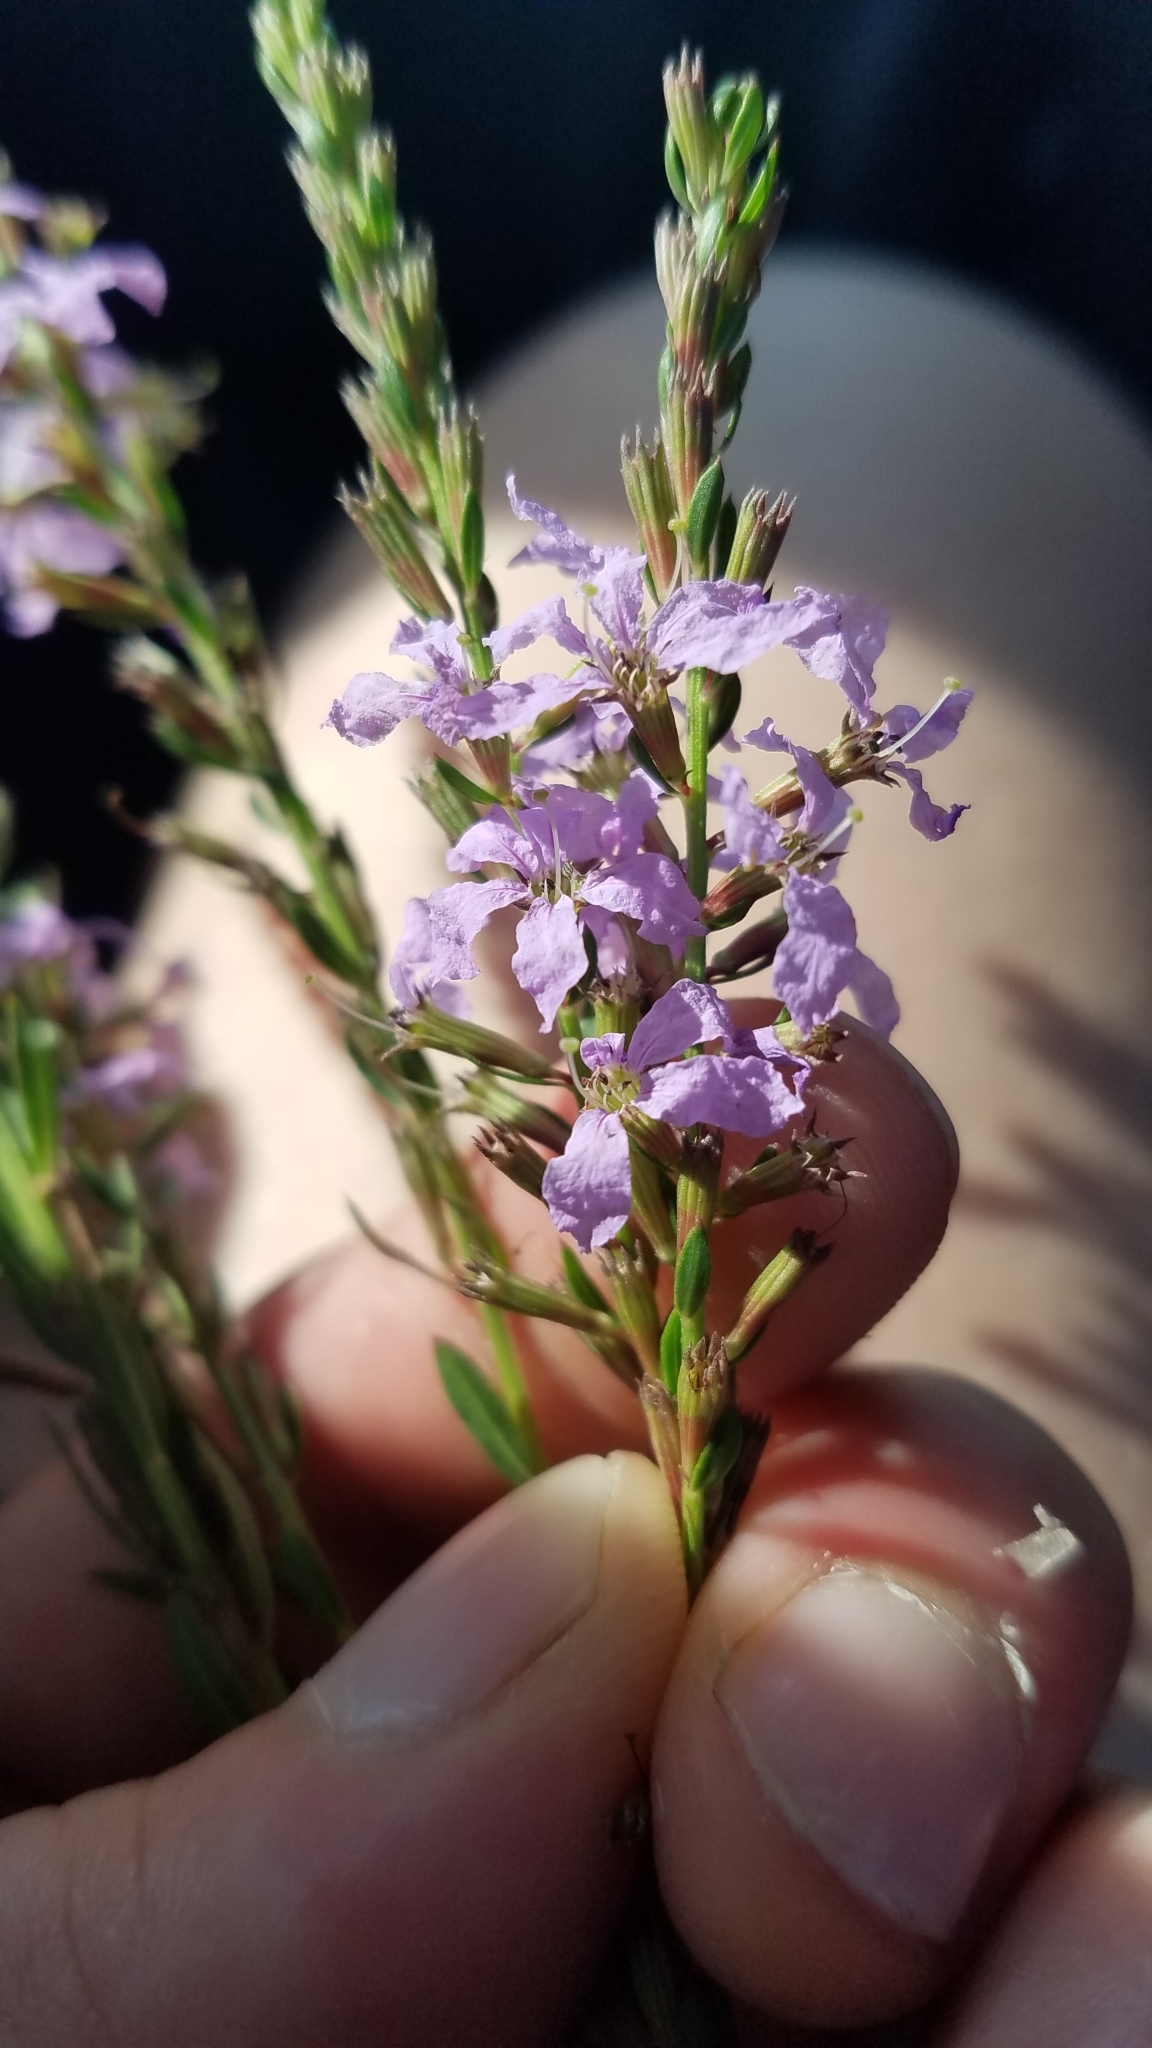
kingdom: Plantae
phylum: Tracheophyta
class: Magnoliopsida
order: Myrtales
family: Lythraceae
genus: Lythrum
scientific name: Lythrum alatum
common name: Winged loosestrife
